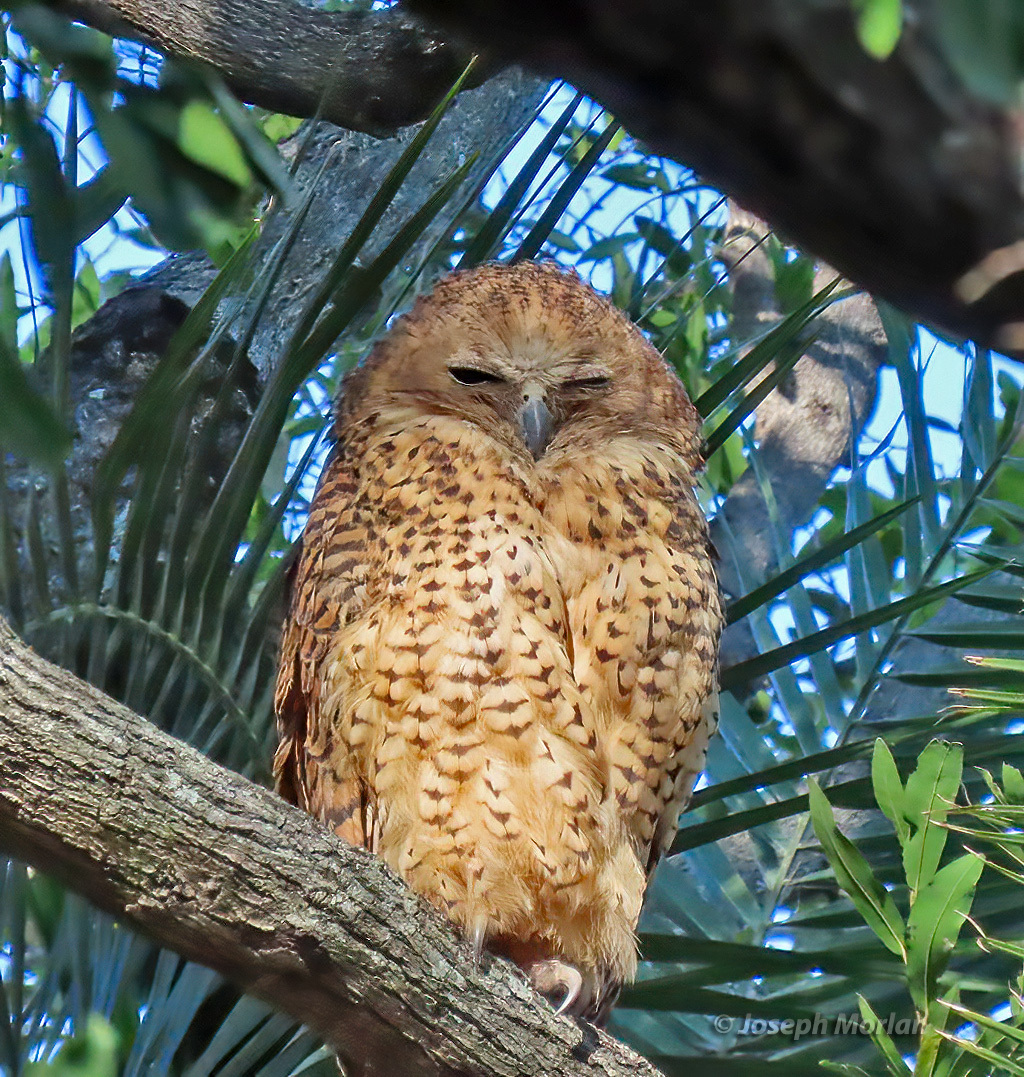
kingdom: Animalia
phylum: Chordata
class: Aves
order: Strigiformes
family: Strigidae
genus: Scotopelia
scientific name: Scotopelia peli
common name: Pel's fishing owl
